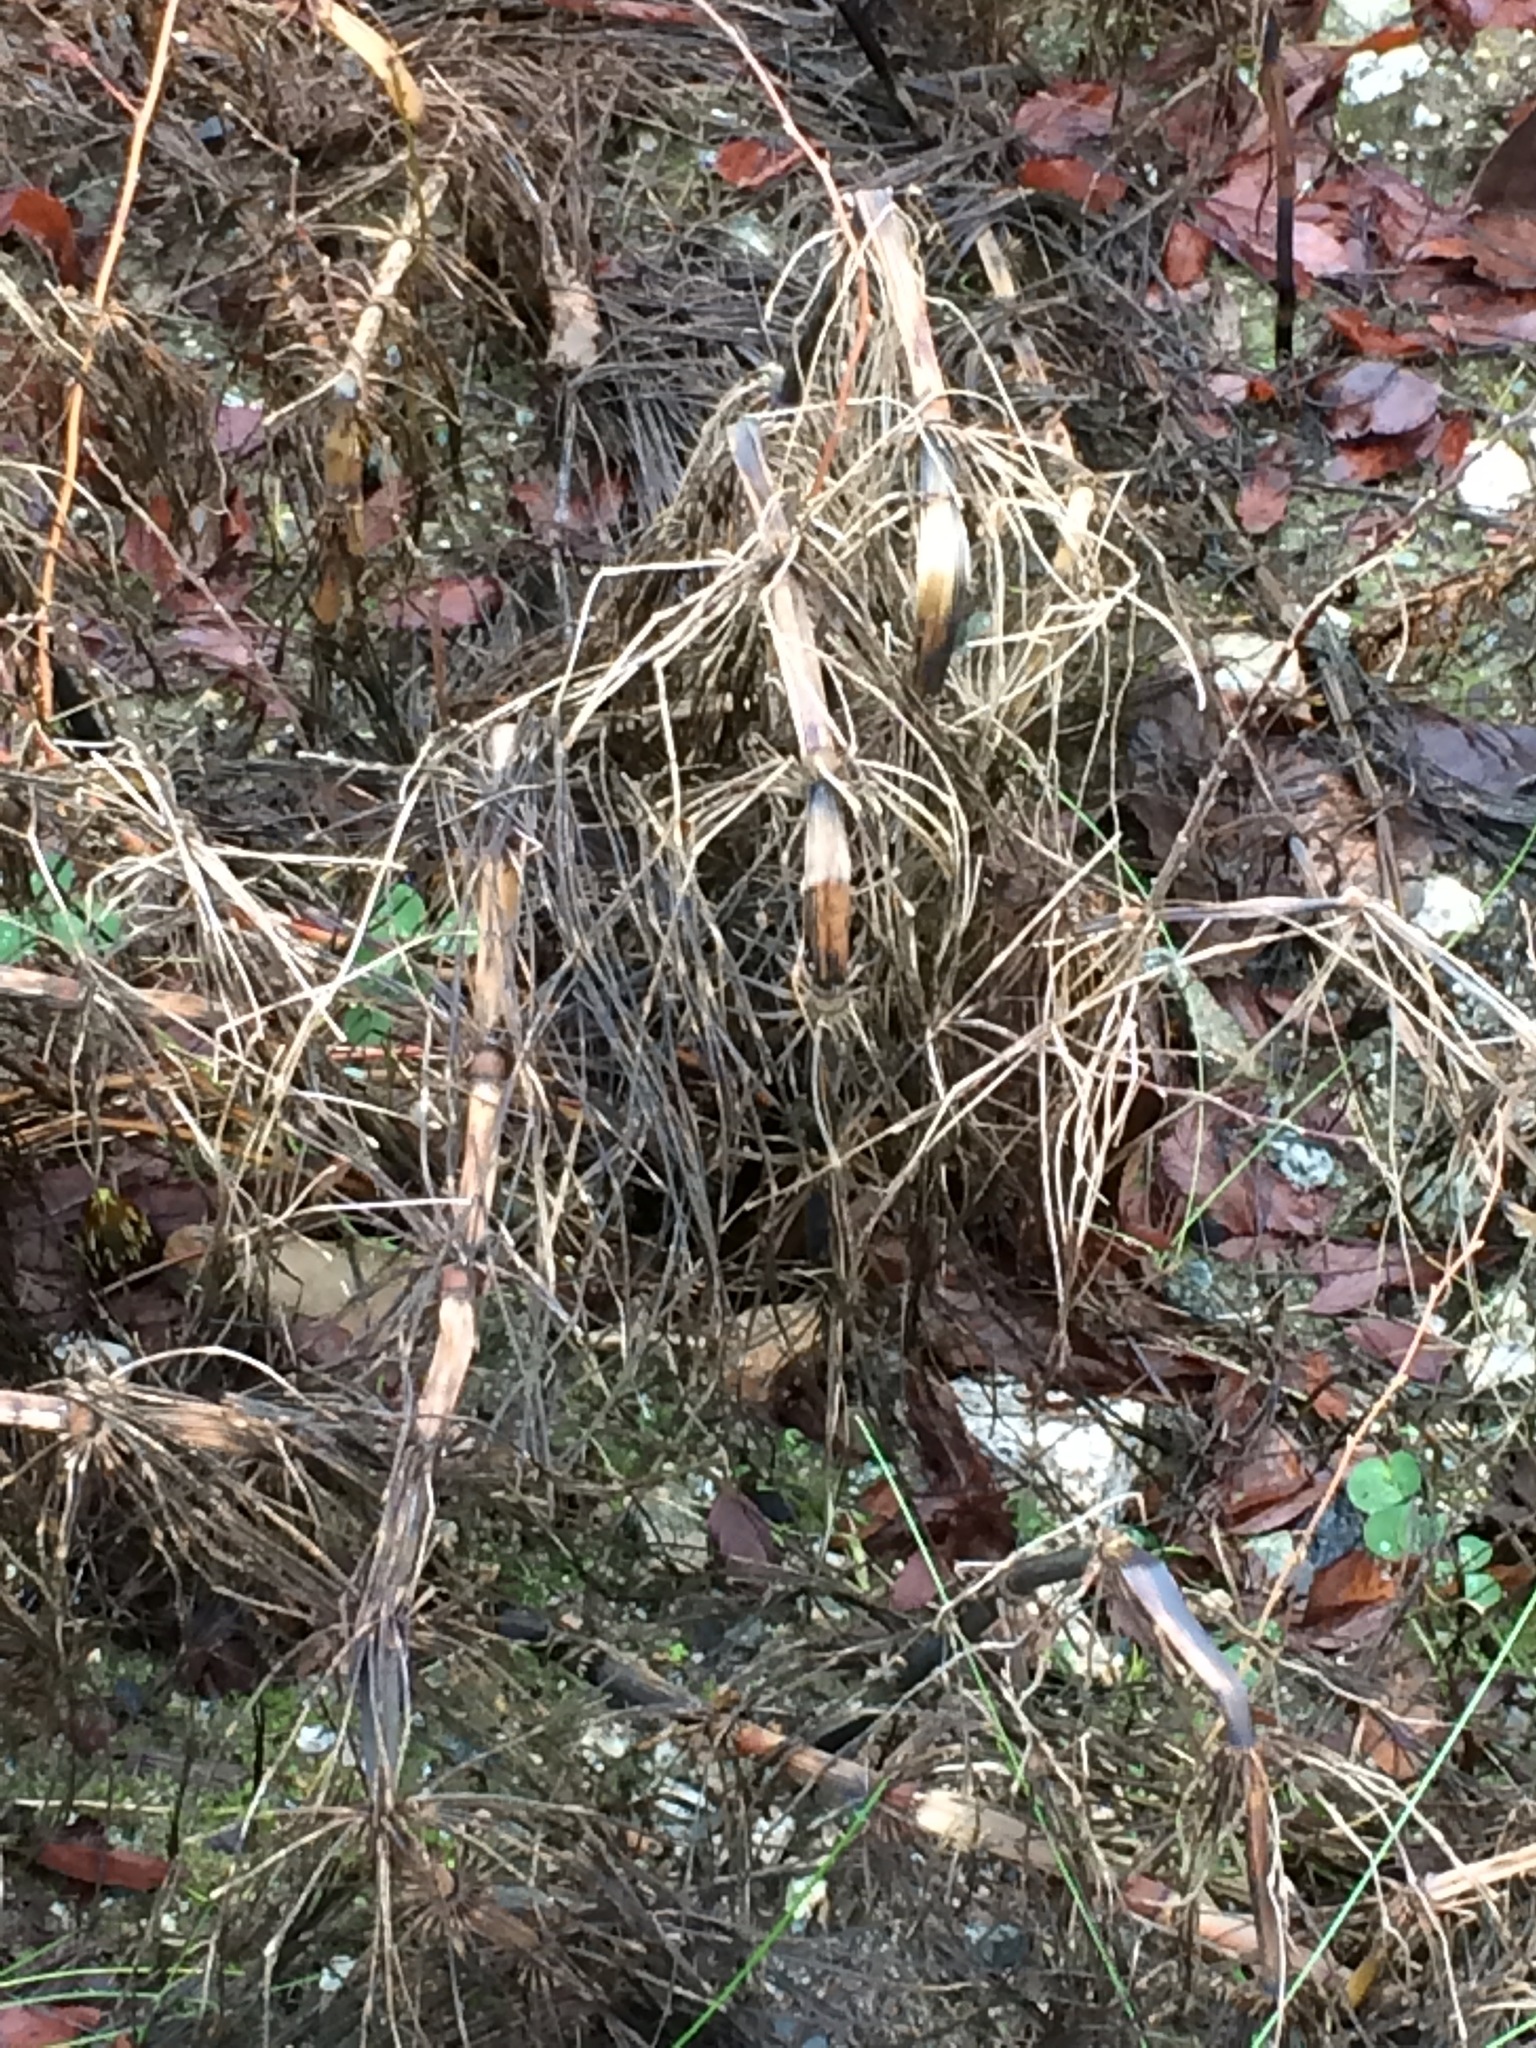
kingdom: Plantae
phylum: Tracheophyta
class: Polypodiopsida
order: Equisetales
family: Equisetaceae
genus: Equisetum
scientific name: Equisetum telmateia
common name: Great horsetail
